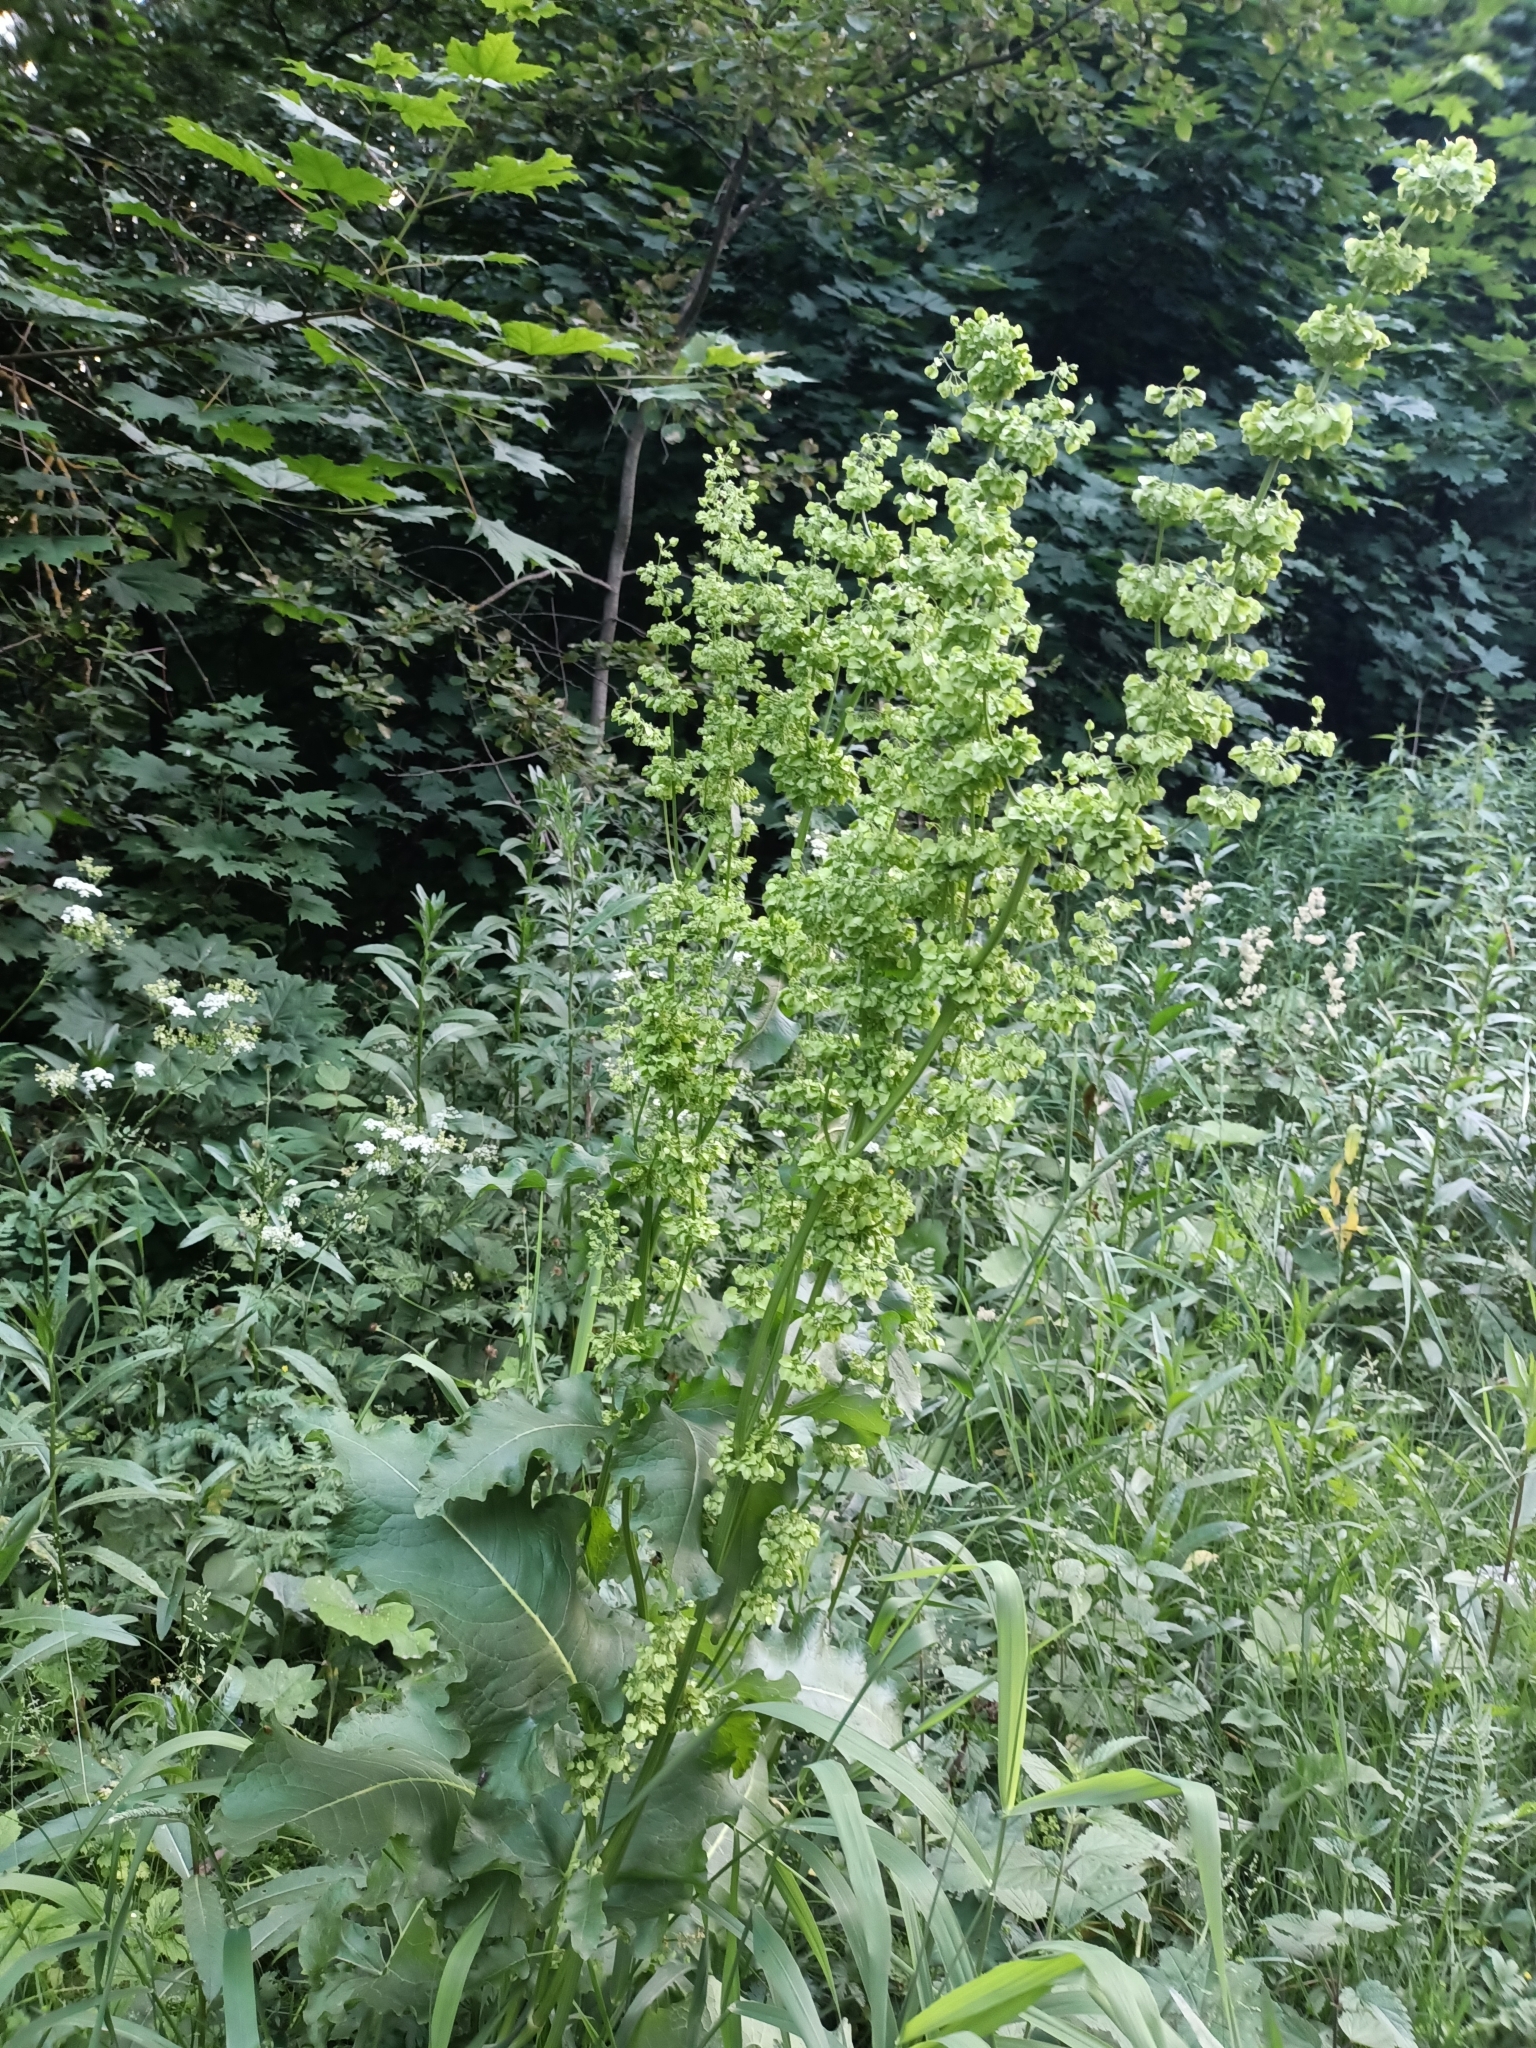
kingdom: Plantae
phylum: Tracheophyta
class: Magnoliopsida
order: Caryophyllales
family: Polygonaceae
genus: Rumex
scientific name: Rumex confertus
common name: Russian dock
